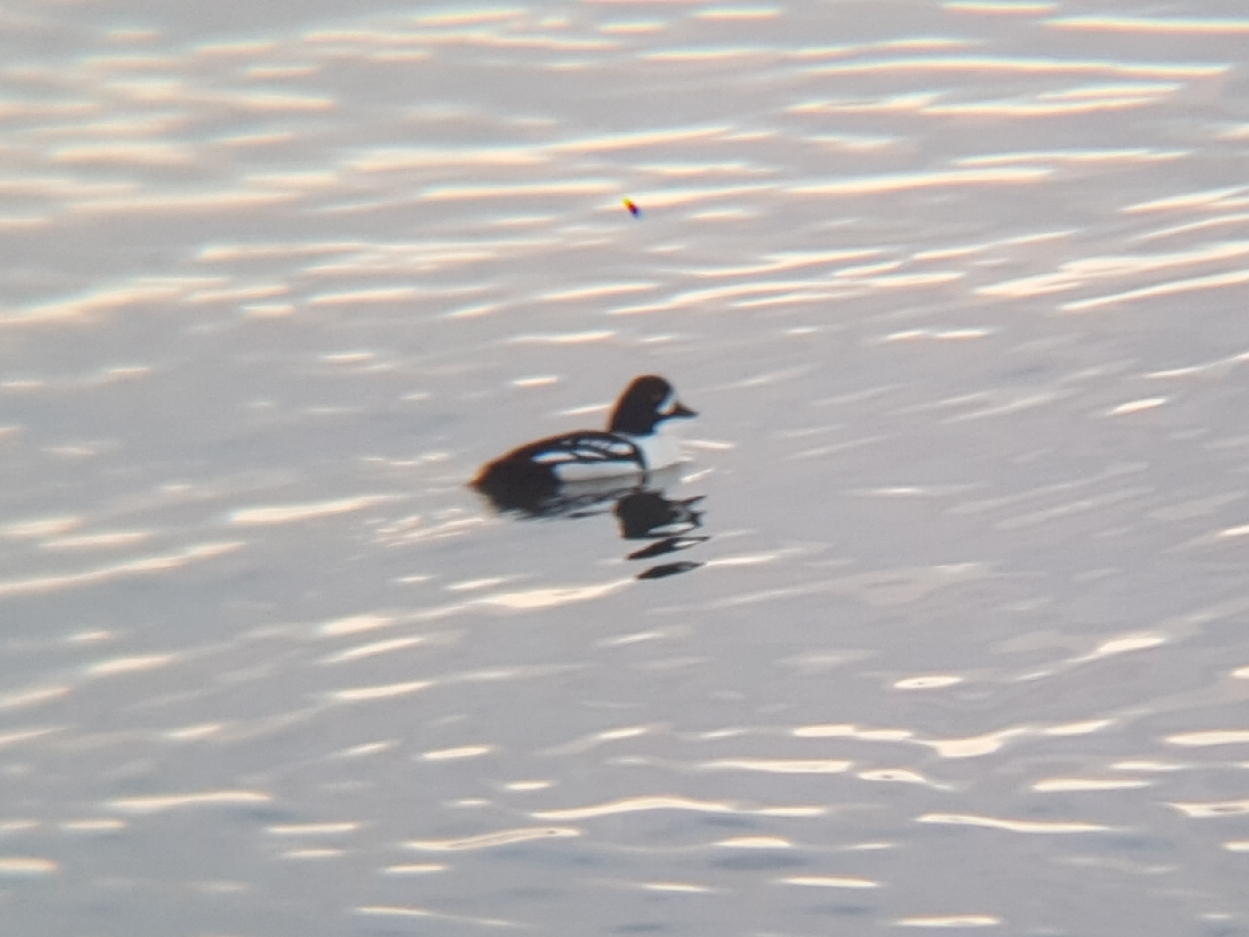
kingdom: Animalia
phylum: Chordata
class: Aves
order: Anseriformes
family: Anatidae
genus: Bucephala
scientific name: Bucephala islandica
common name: Barrow's goldeneye
